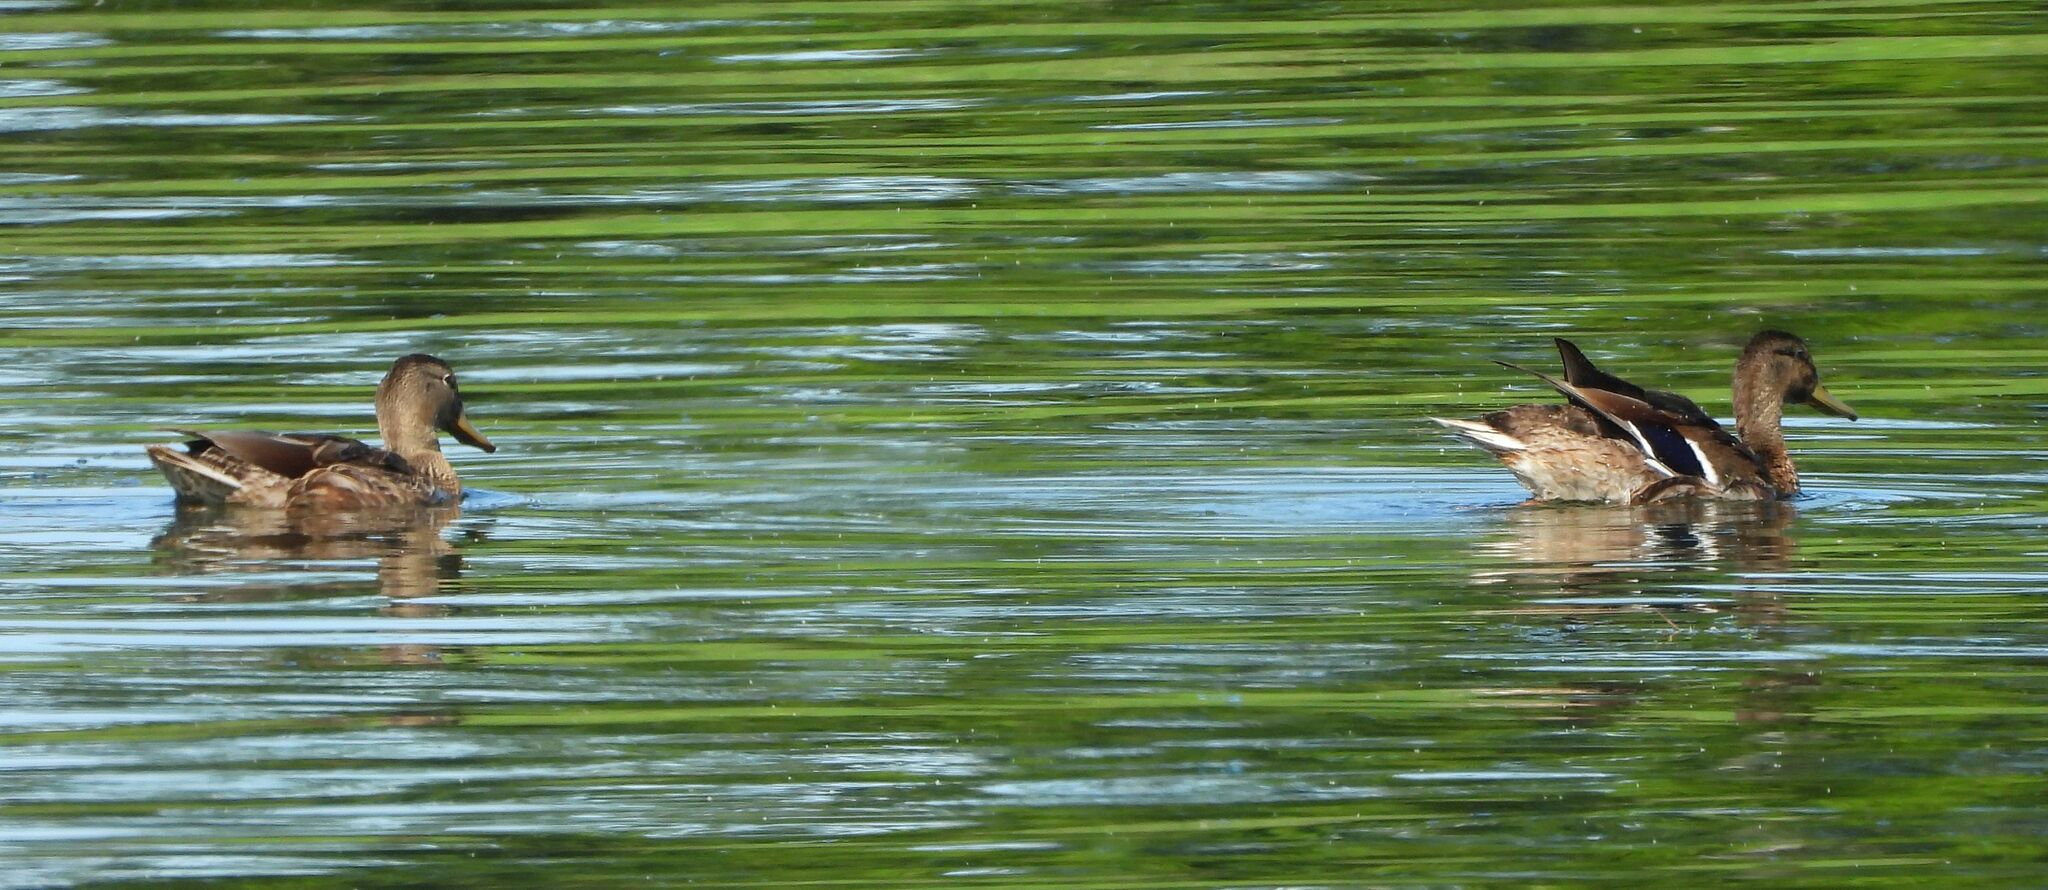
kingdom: Animalia
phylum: Chordata
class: Aves
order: Anseriformes
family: Anatidae
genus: Anas
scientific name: Anas platyrhynchos
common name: Mallard
